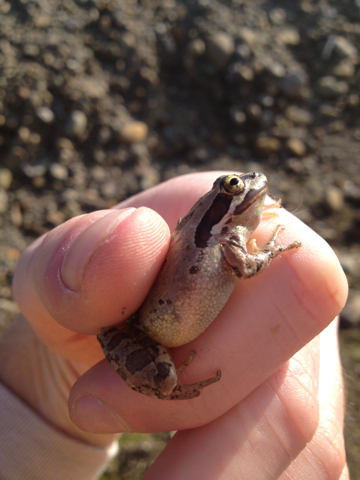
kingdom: Animalia
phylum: Chordata
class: Amphibia
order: Anura
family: Hylidae
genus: Pseudacris
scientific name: Pseudacris regilla
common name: Pacific chorus frog
